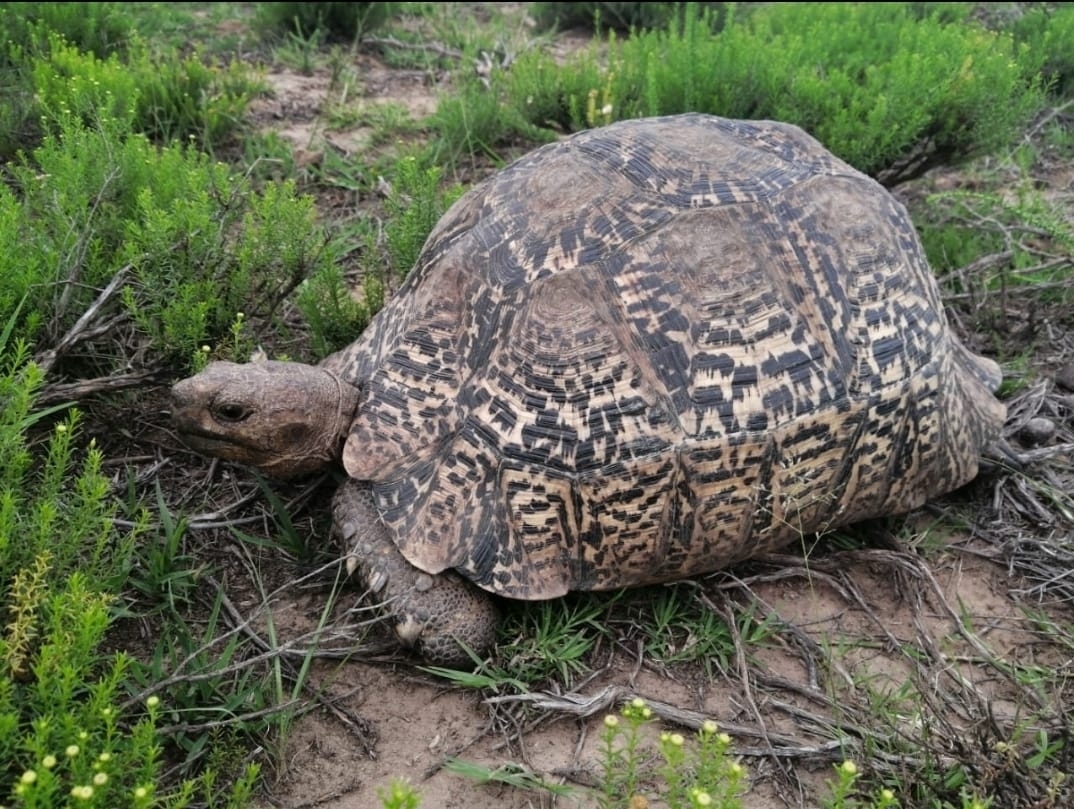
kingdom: Animalia
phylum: Chordata
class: Testudines
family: Testudinidae
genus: Stigmochelys
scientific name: Stigmochelys pardalis
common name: Leopard tortoise
